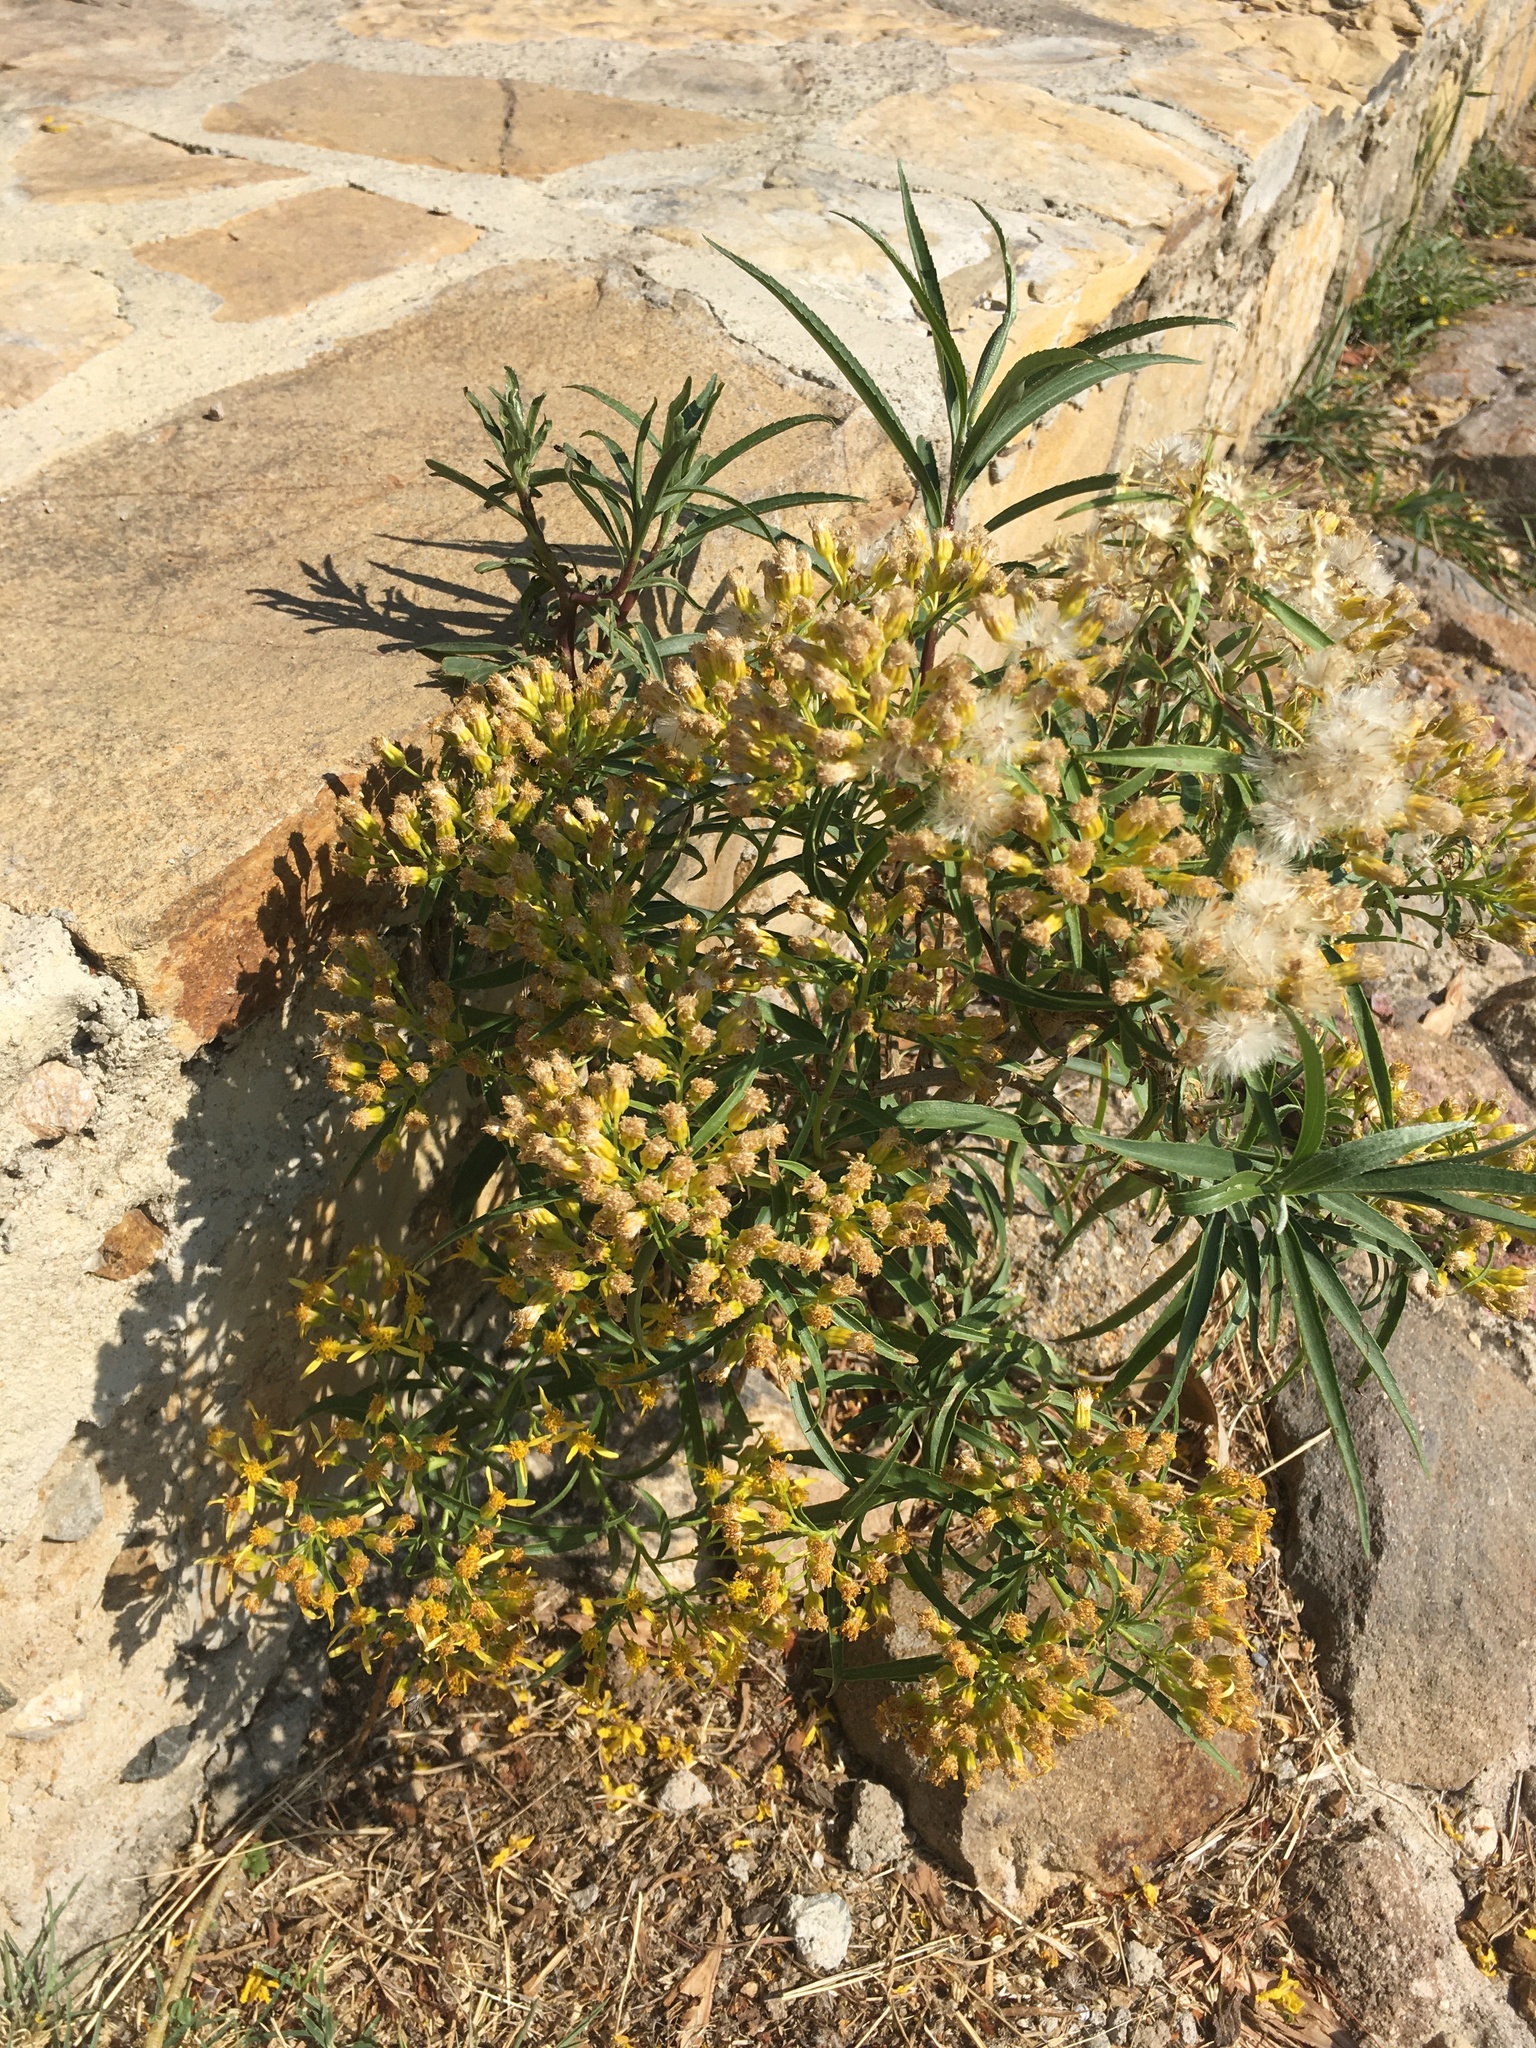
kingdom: Plantae
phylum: Tracheophyta
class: Magnoliopsida
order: Asterales
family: Asteraceae
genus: Barkleyanthus
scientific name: Barkleyanthus salicifolius
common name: Willow ragwort
